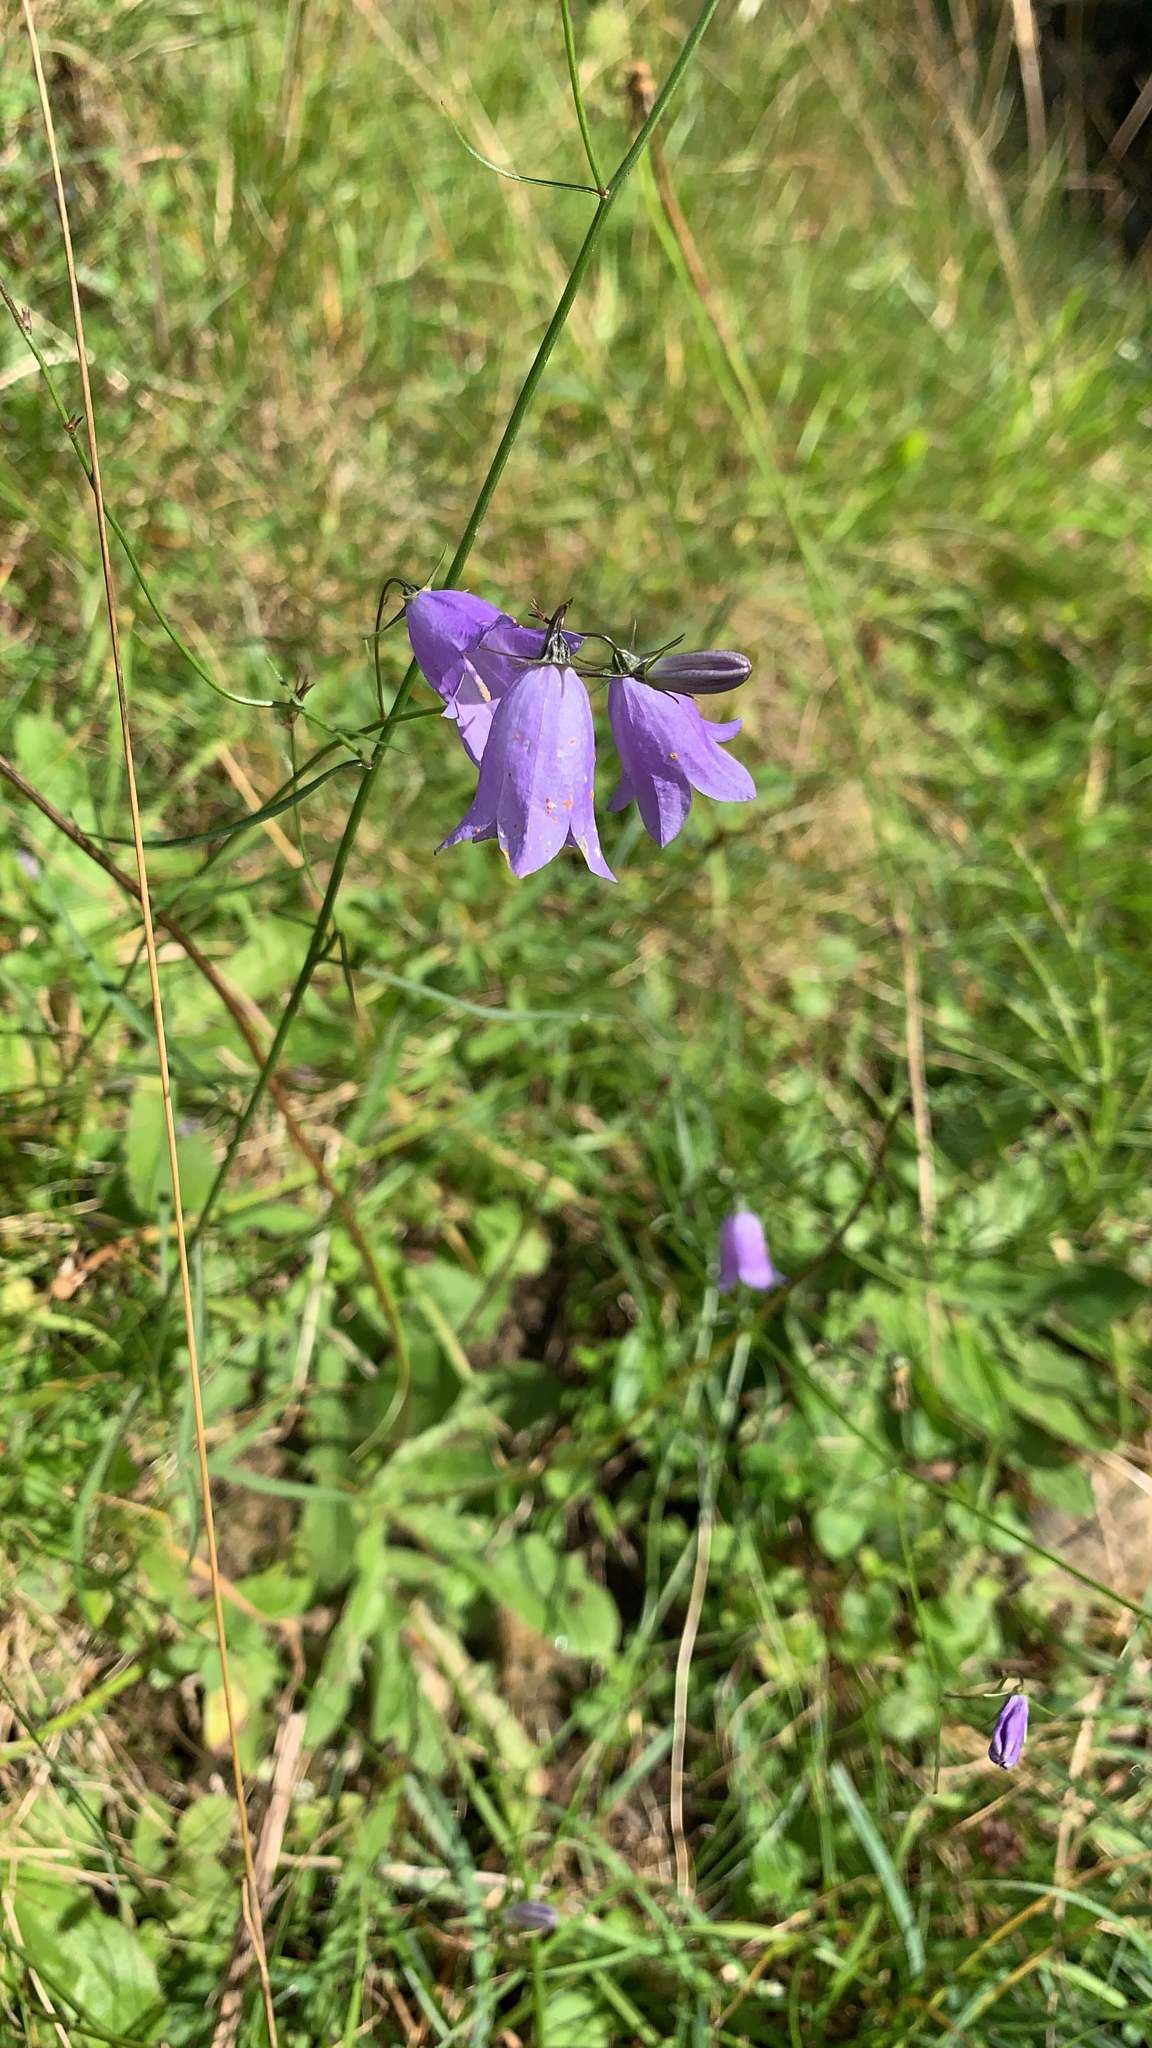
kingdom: Plantae
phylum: Tracheophyta
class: Magnoliopsida
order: Asterales
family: Campanulaceae
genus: Campanula
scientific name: Campanula rotundifolia
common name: Harebell
